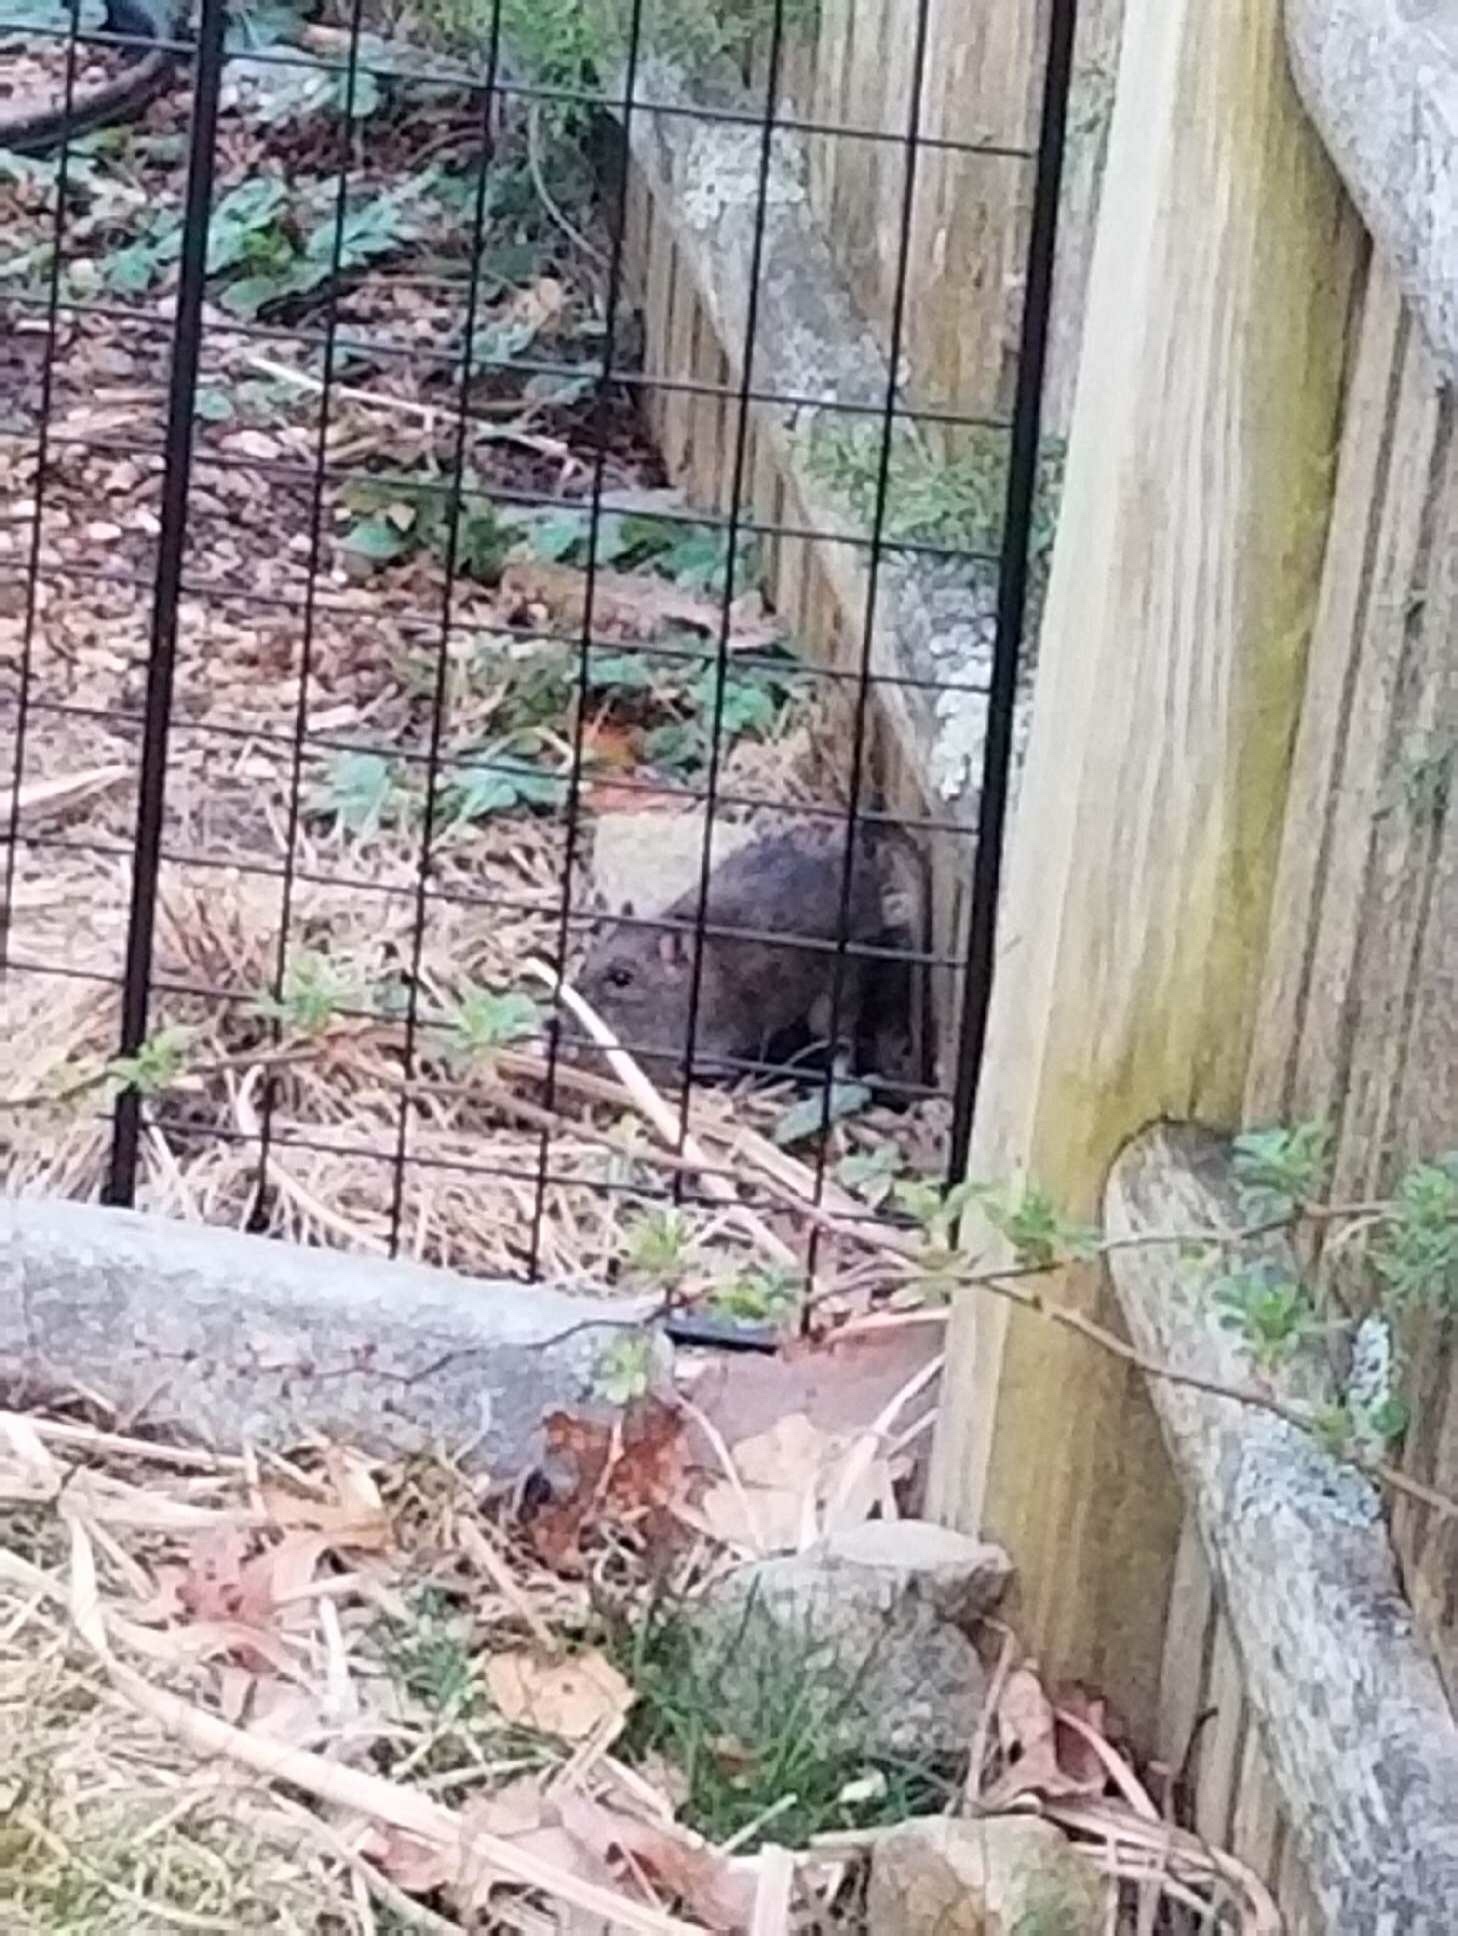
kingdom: Animalia
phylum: Chordata
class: Mammalia
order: Rodentia
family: Muridae
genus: Rattus
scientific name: Rattus norvegicus
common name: Brown rat
